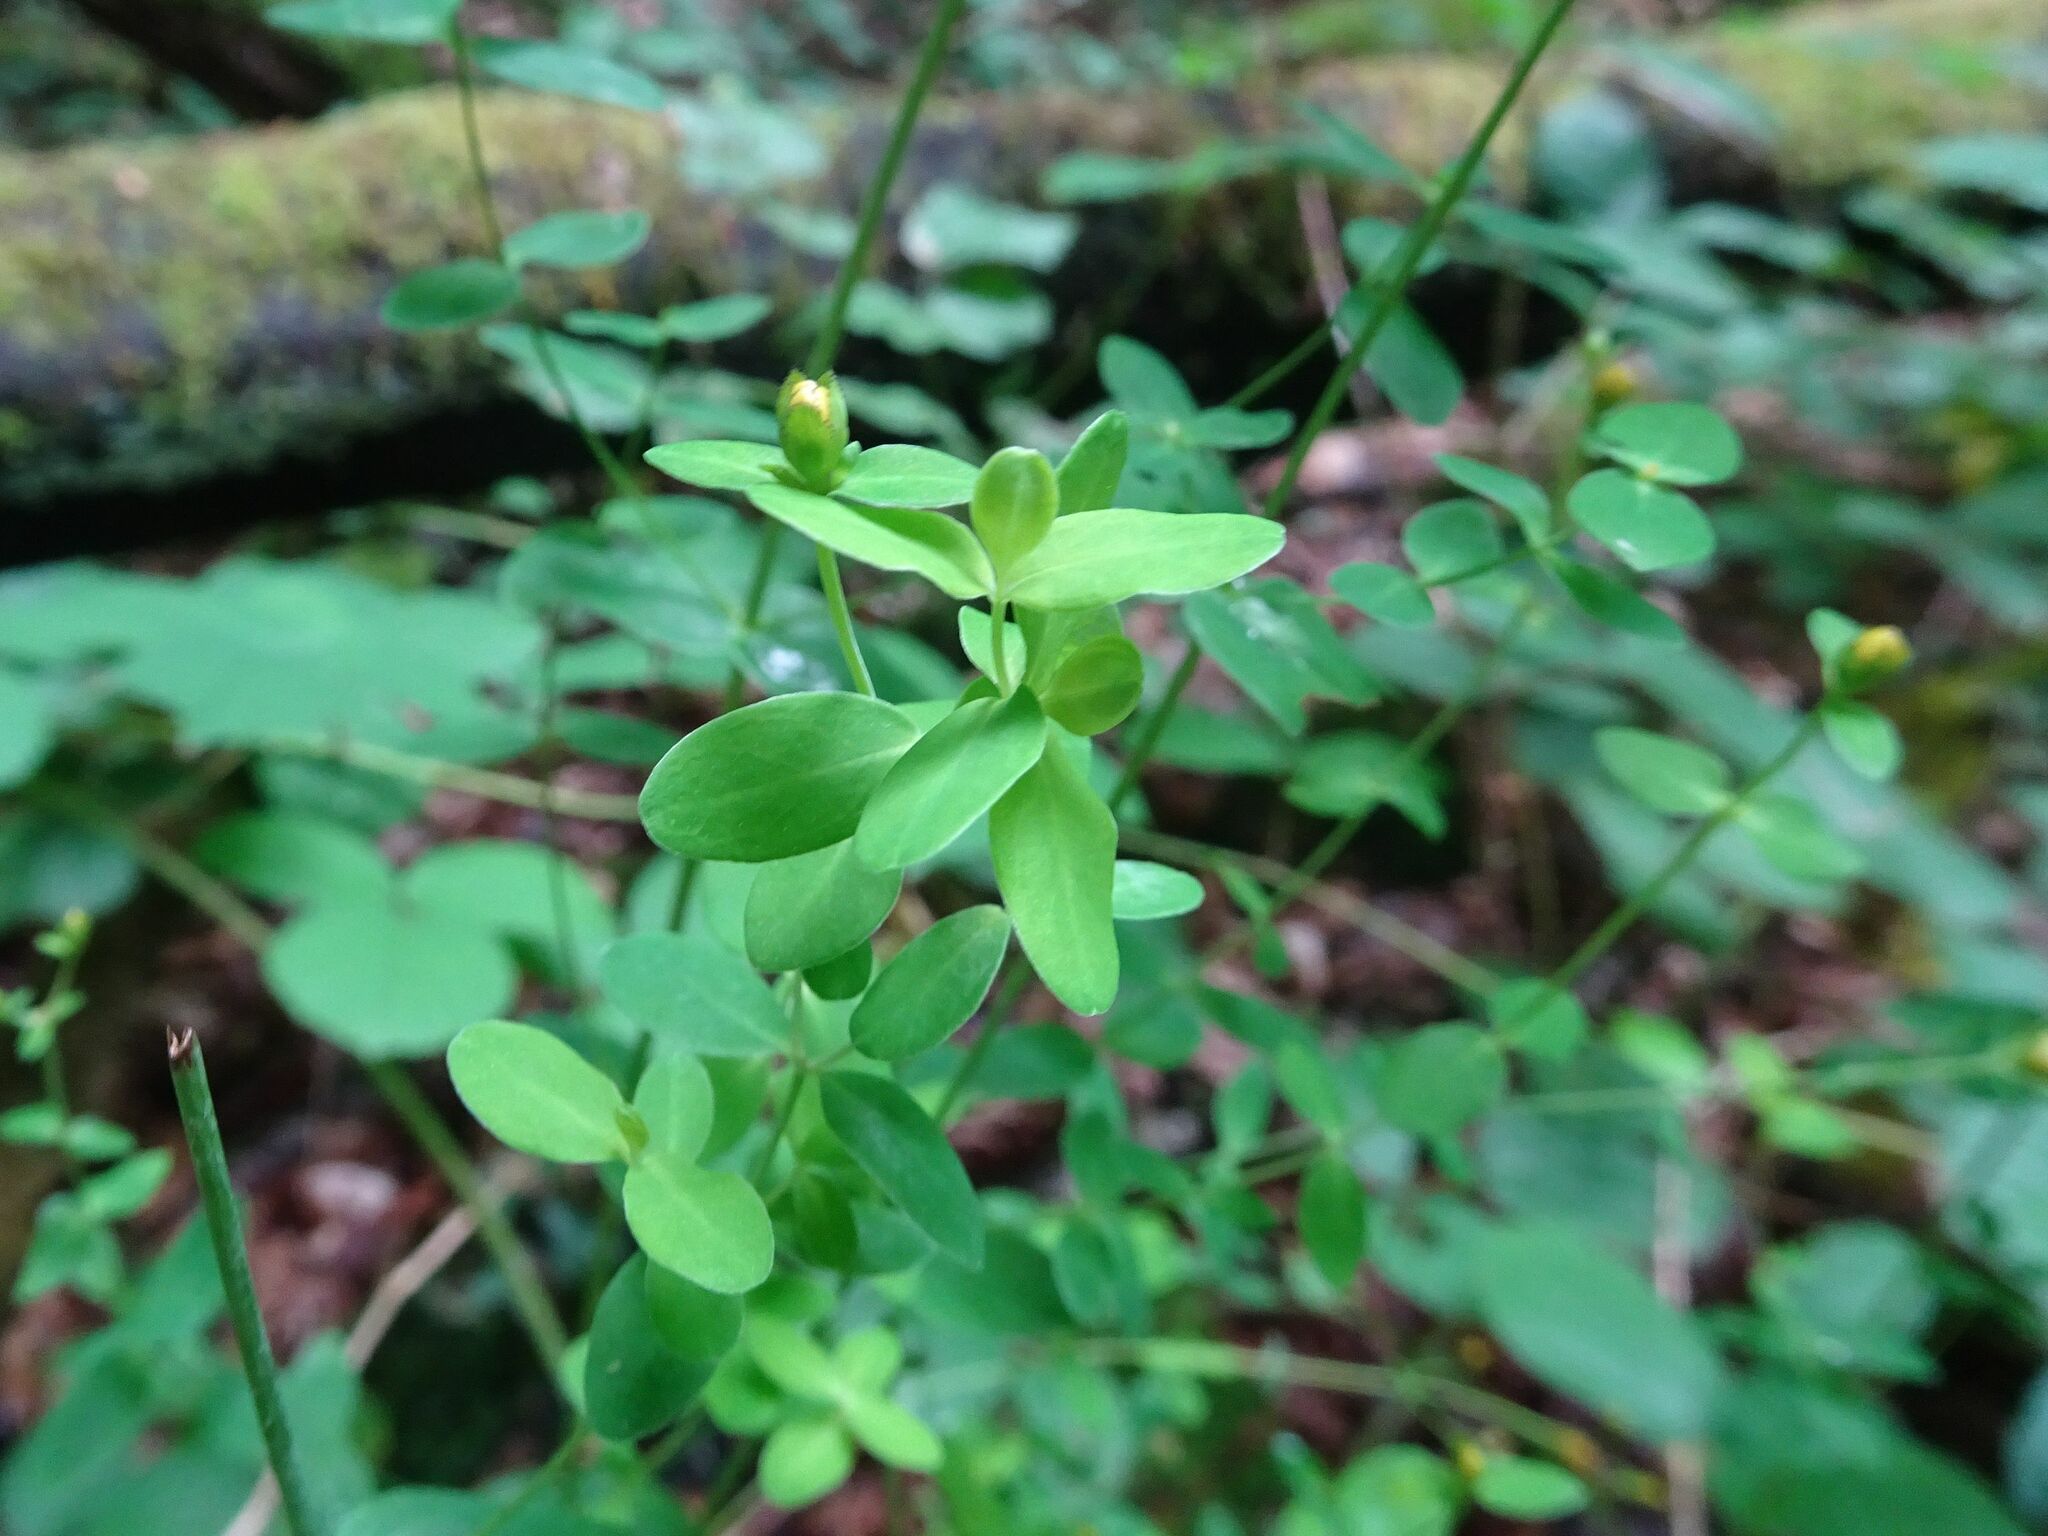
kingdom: Plantae
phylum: Tracheophyta
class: Magnoliopsida
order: Malpighiales
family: Hypericaceae
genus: Hypericum
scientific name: Hypericum pulchrum
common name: Slender st. john's-wort
